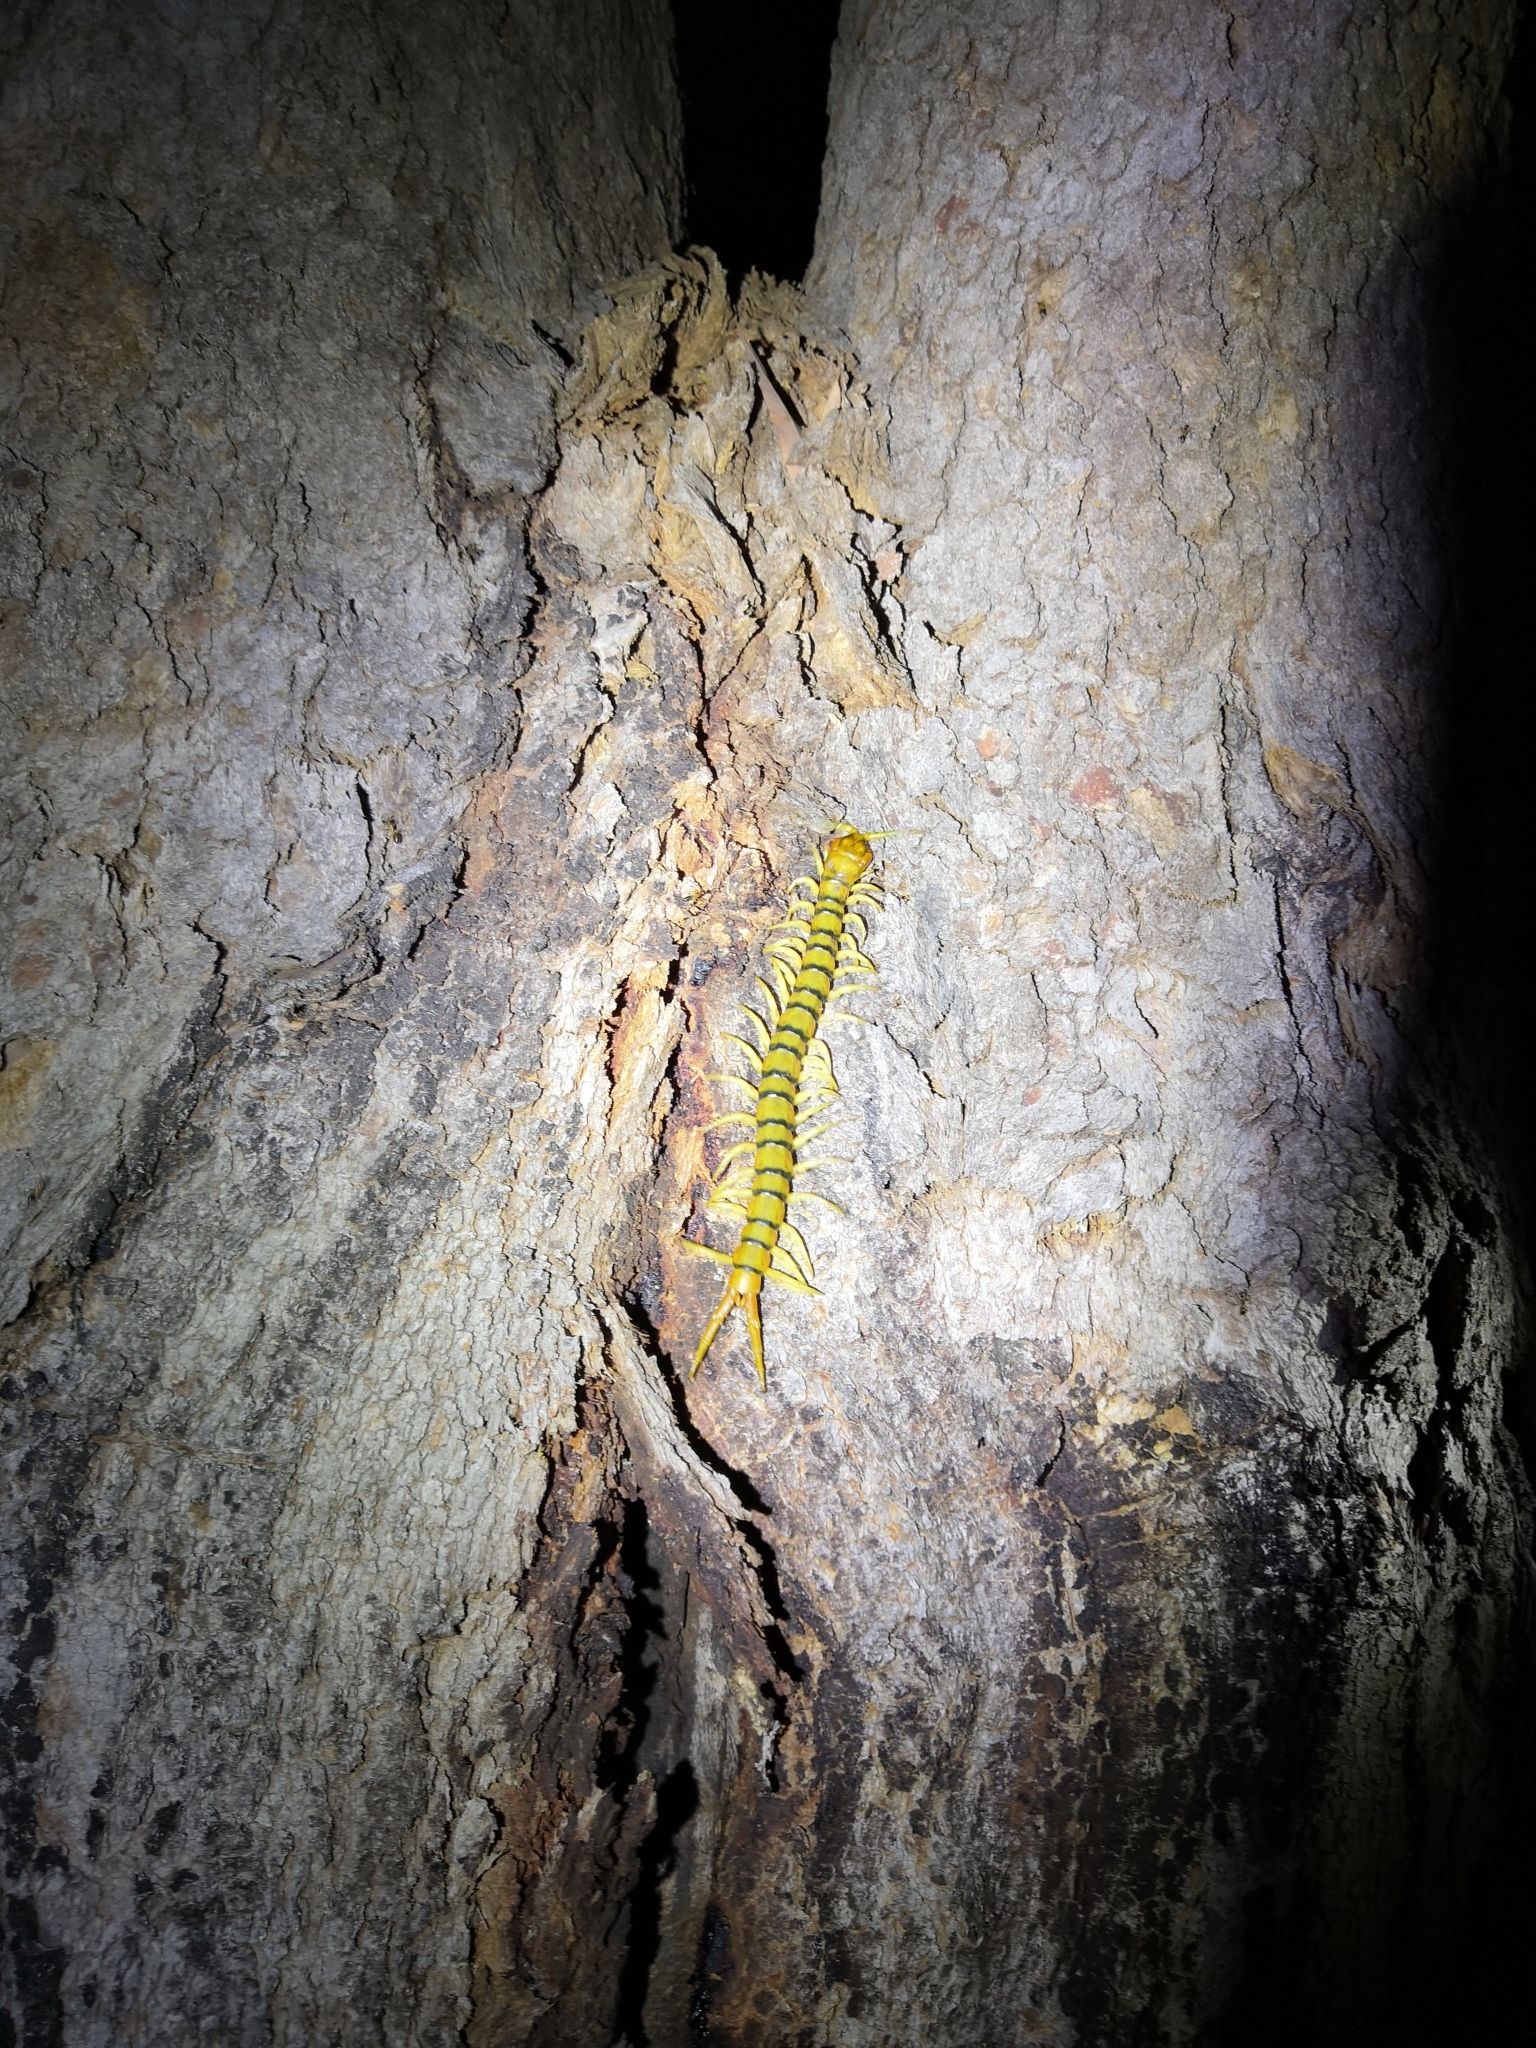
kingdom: Animalia
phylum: Arthropoda
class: Chilopoda
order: Scolopendromorpha
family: Scolopendridae
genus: Ethmostigmus
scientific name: Ethmostigmus rubripes
